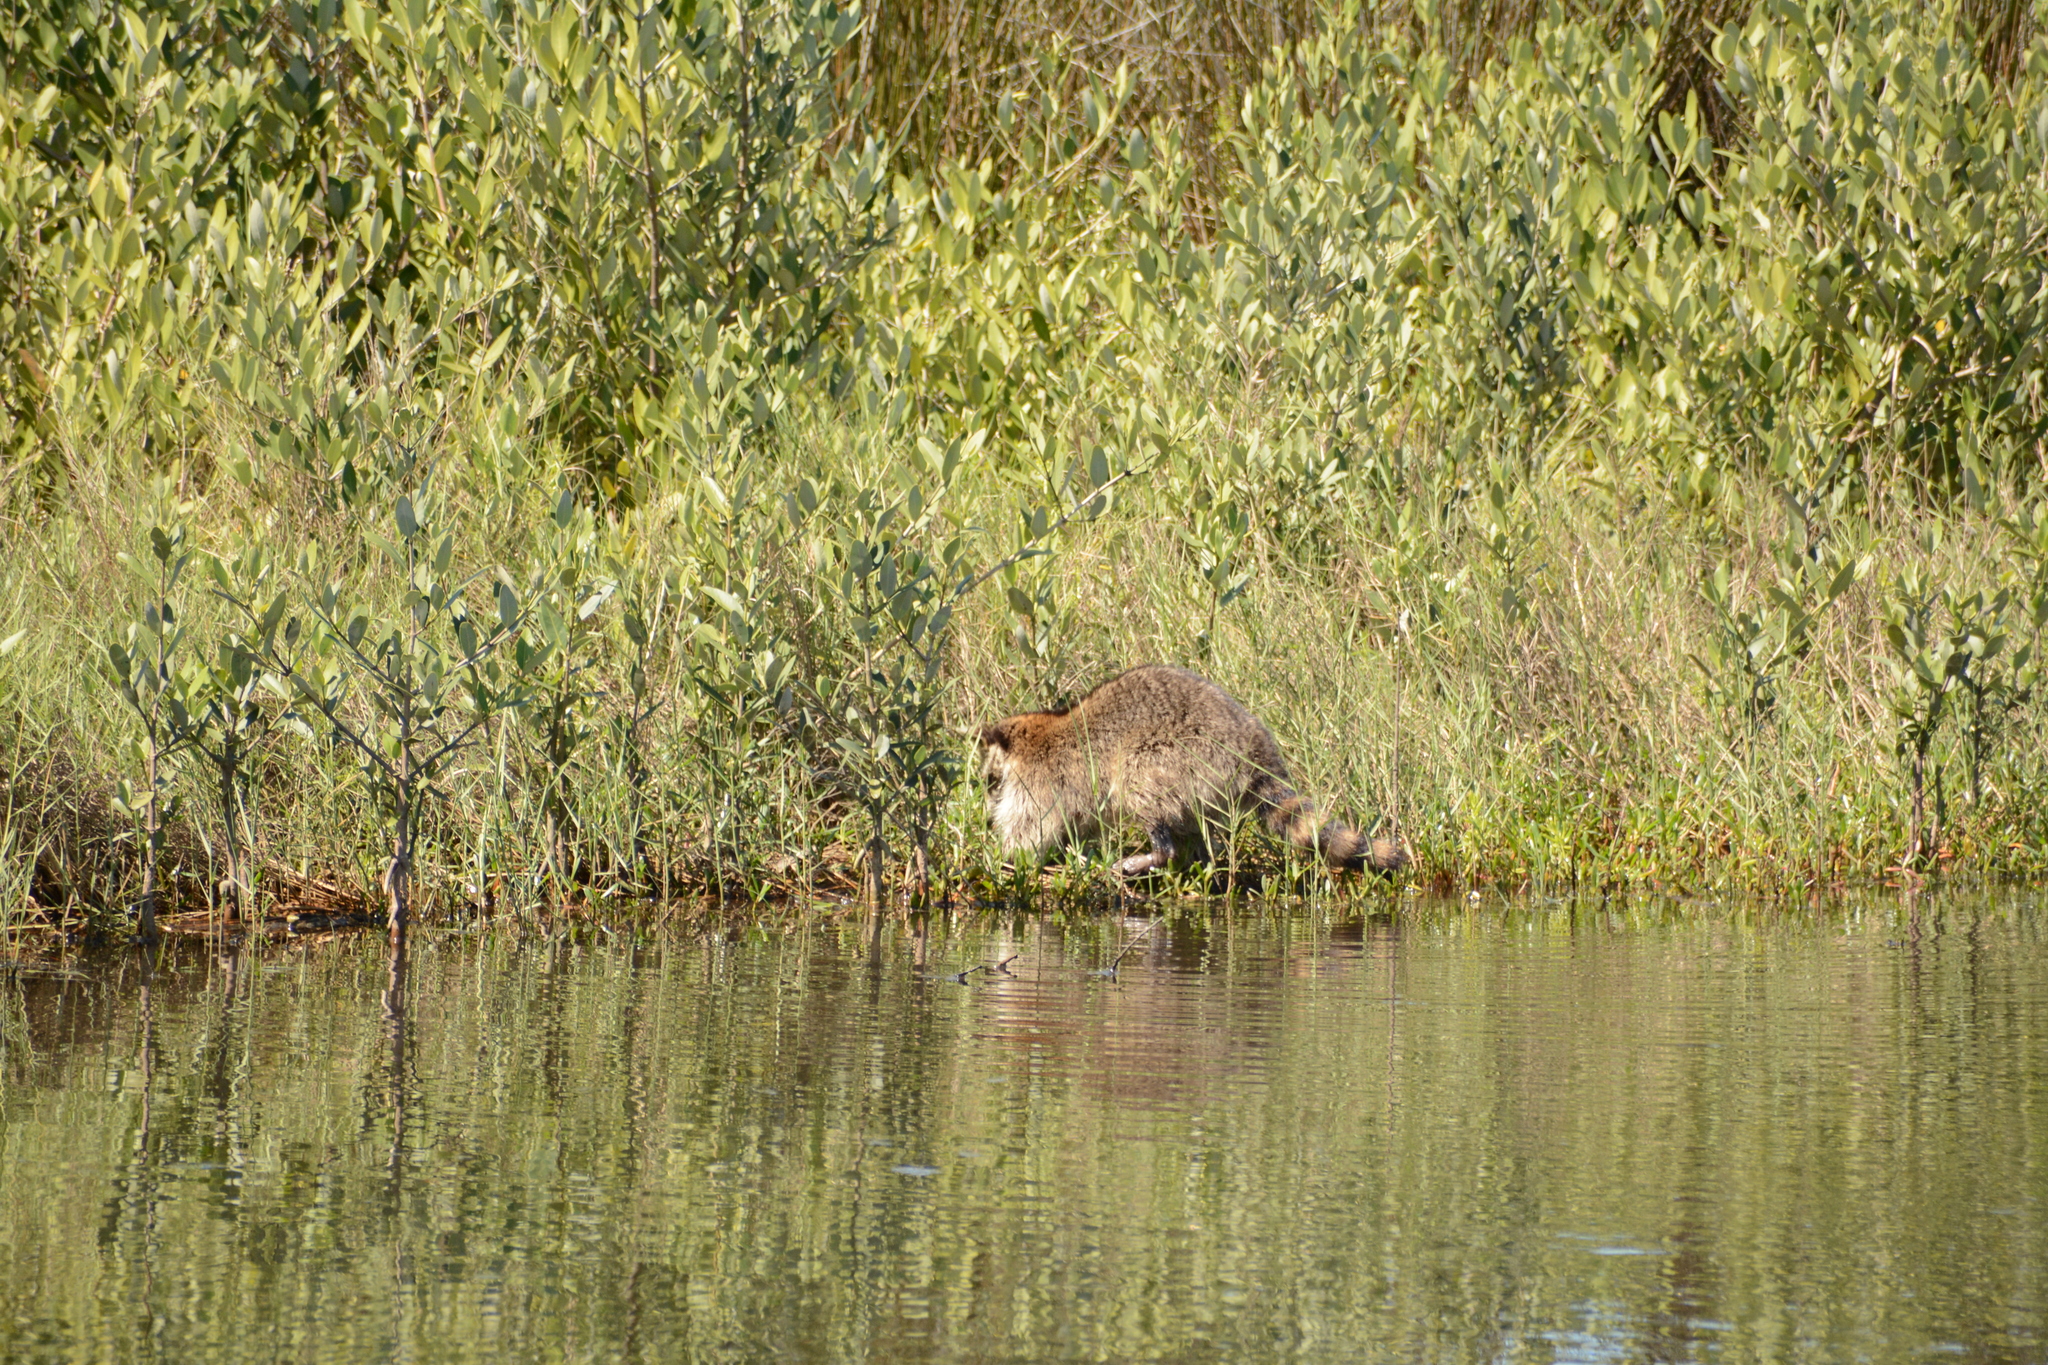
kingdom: Animalia
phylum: Chordata
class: Mammalia
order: Carnivora
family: Procyonidae
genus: Procyon
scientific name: Procyon lotor
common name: Raccoon
